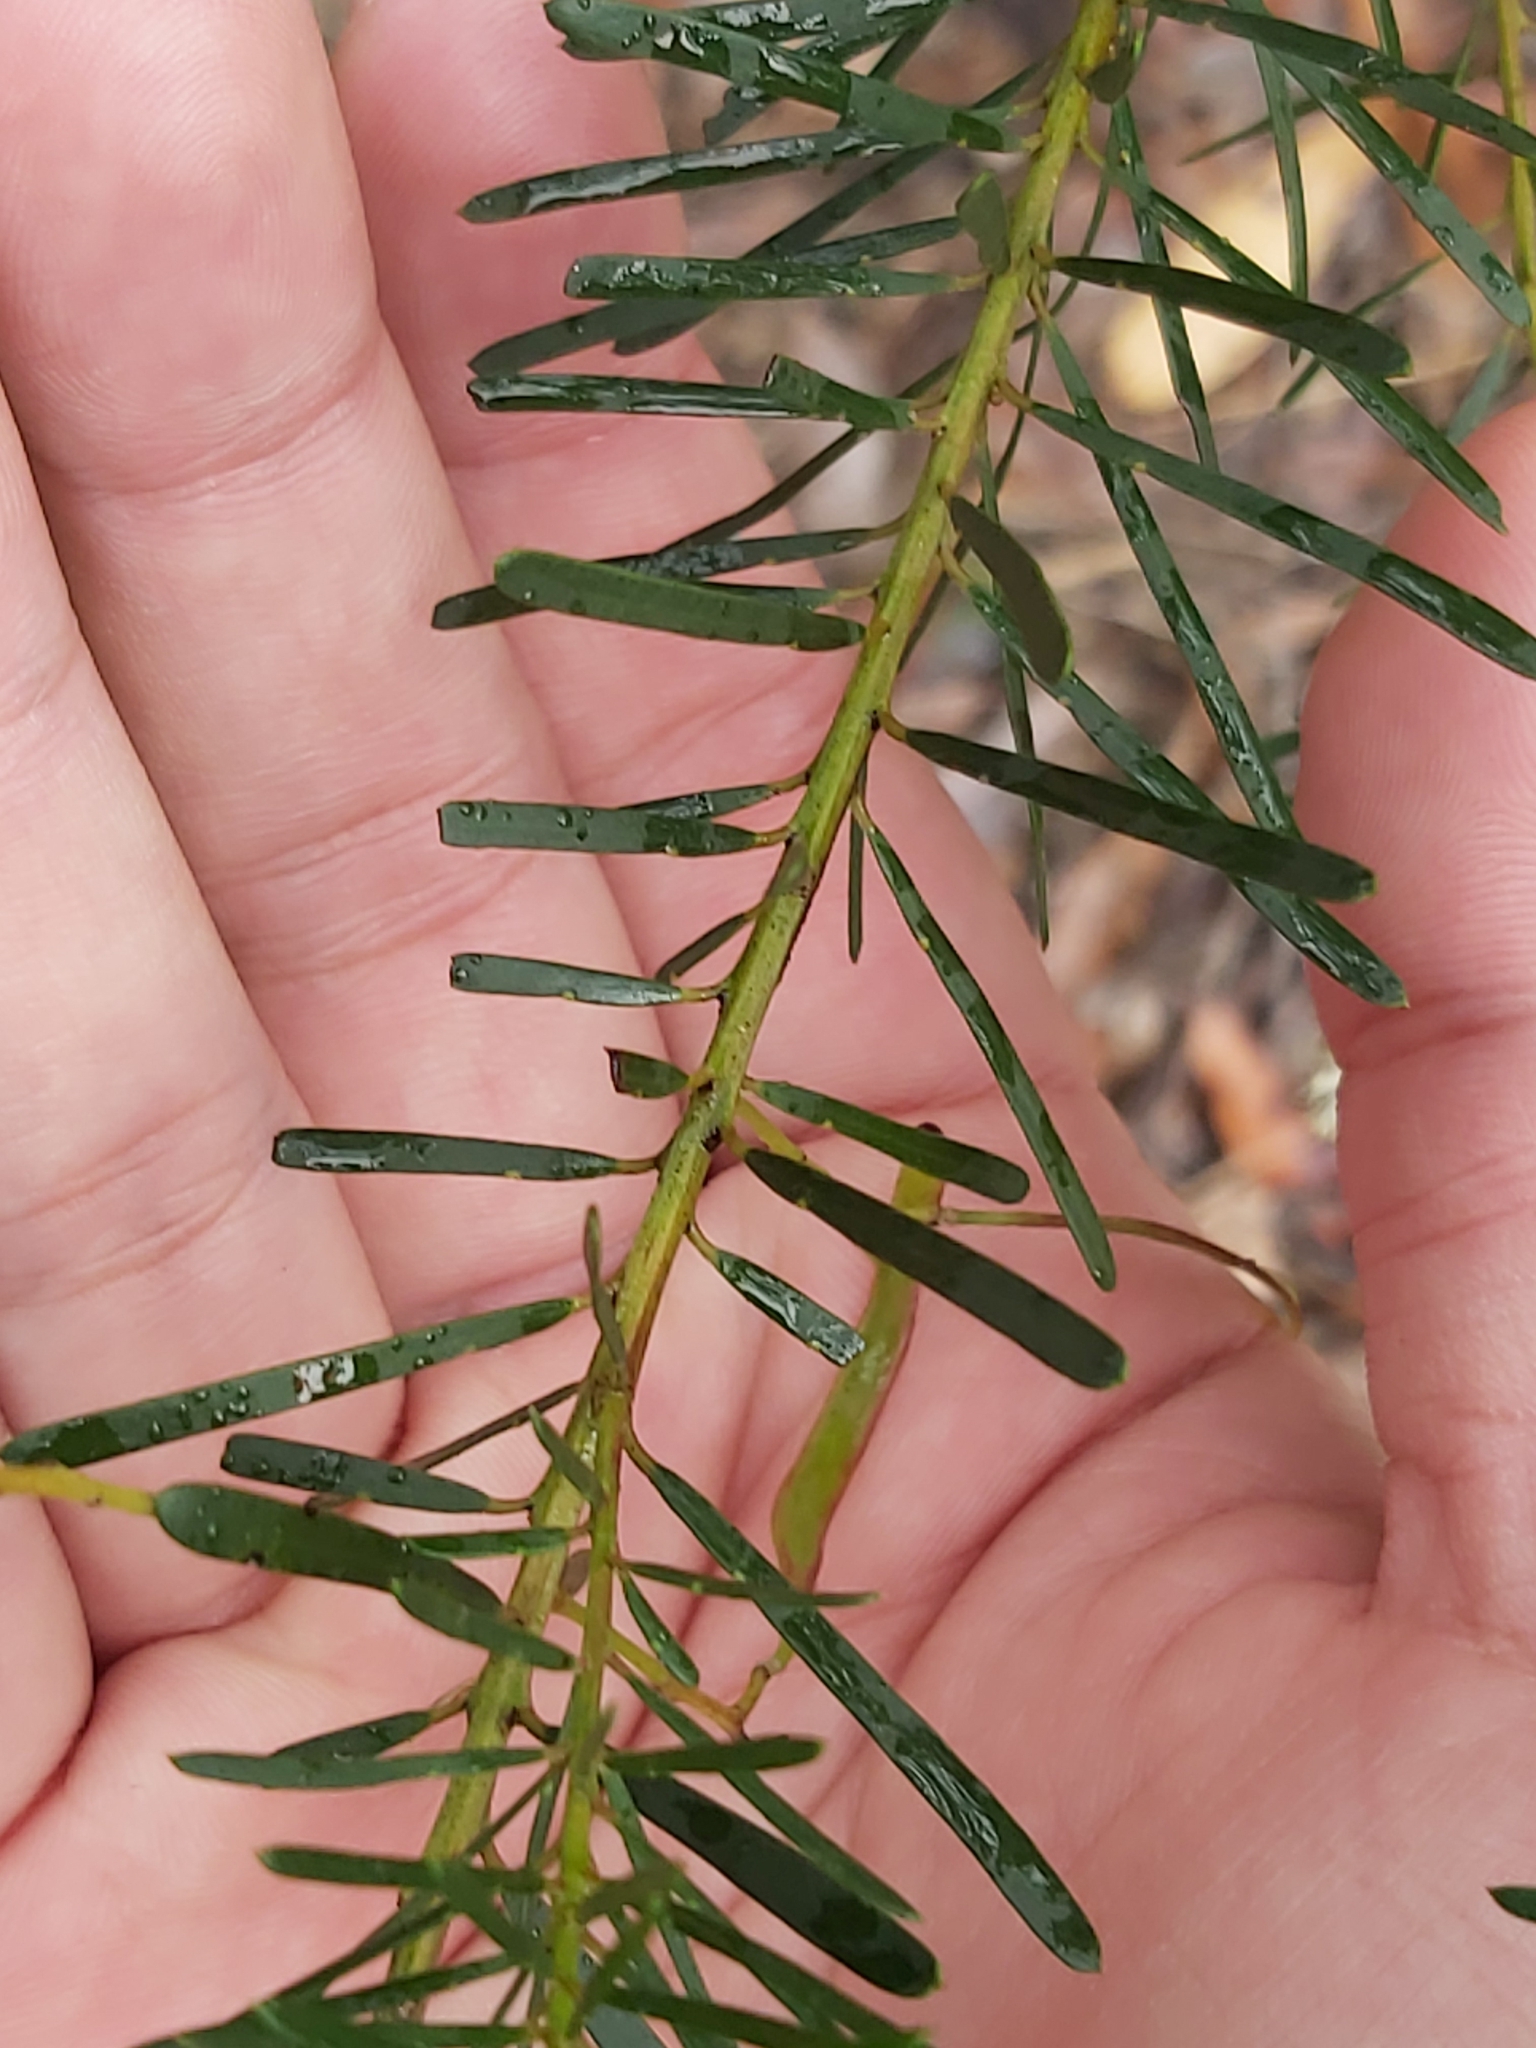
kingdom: Plantae
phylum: Tracheophyta
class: Magnoliopsida
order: Fabales
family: Fabaceae
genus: Acacia
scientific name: Acacia linifolia
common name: White wattle
